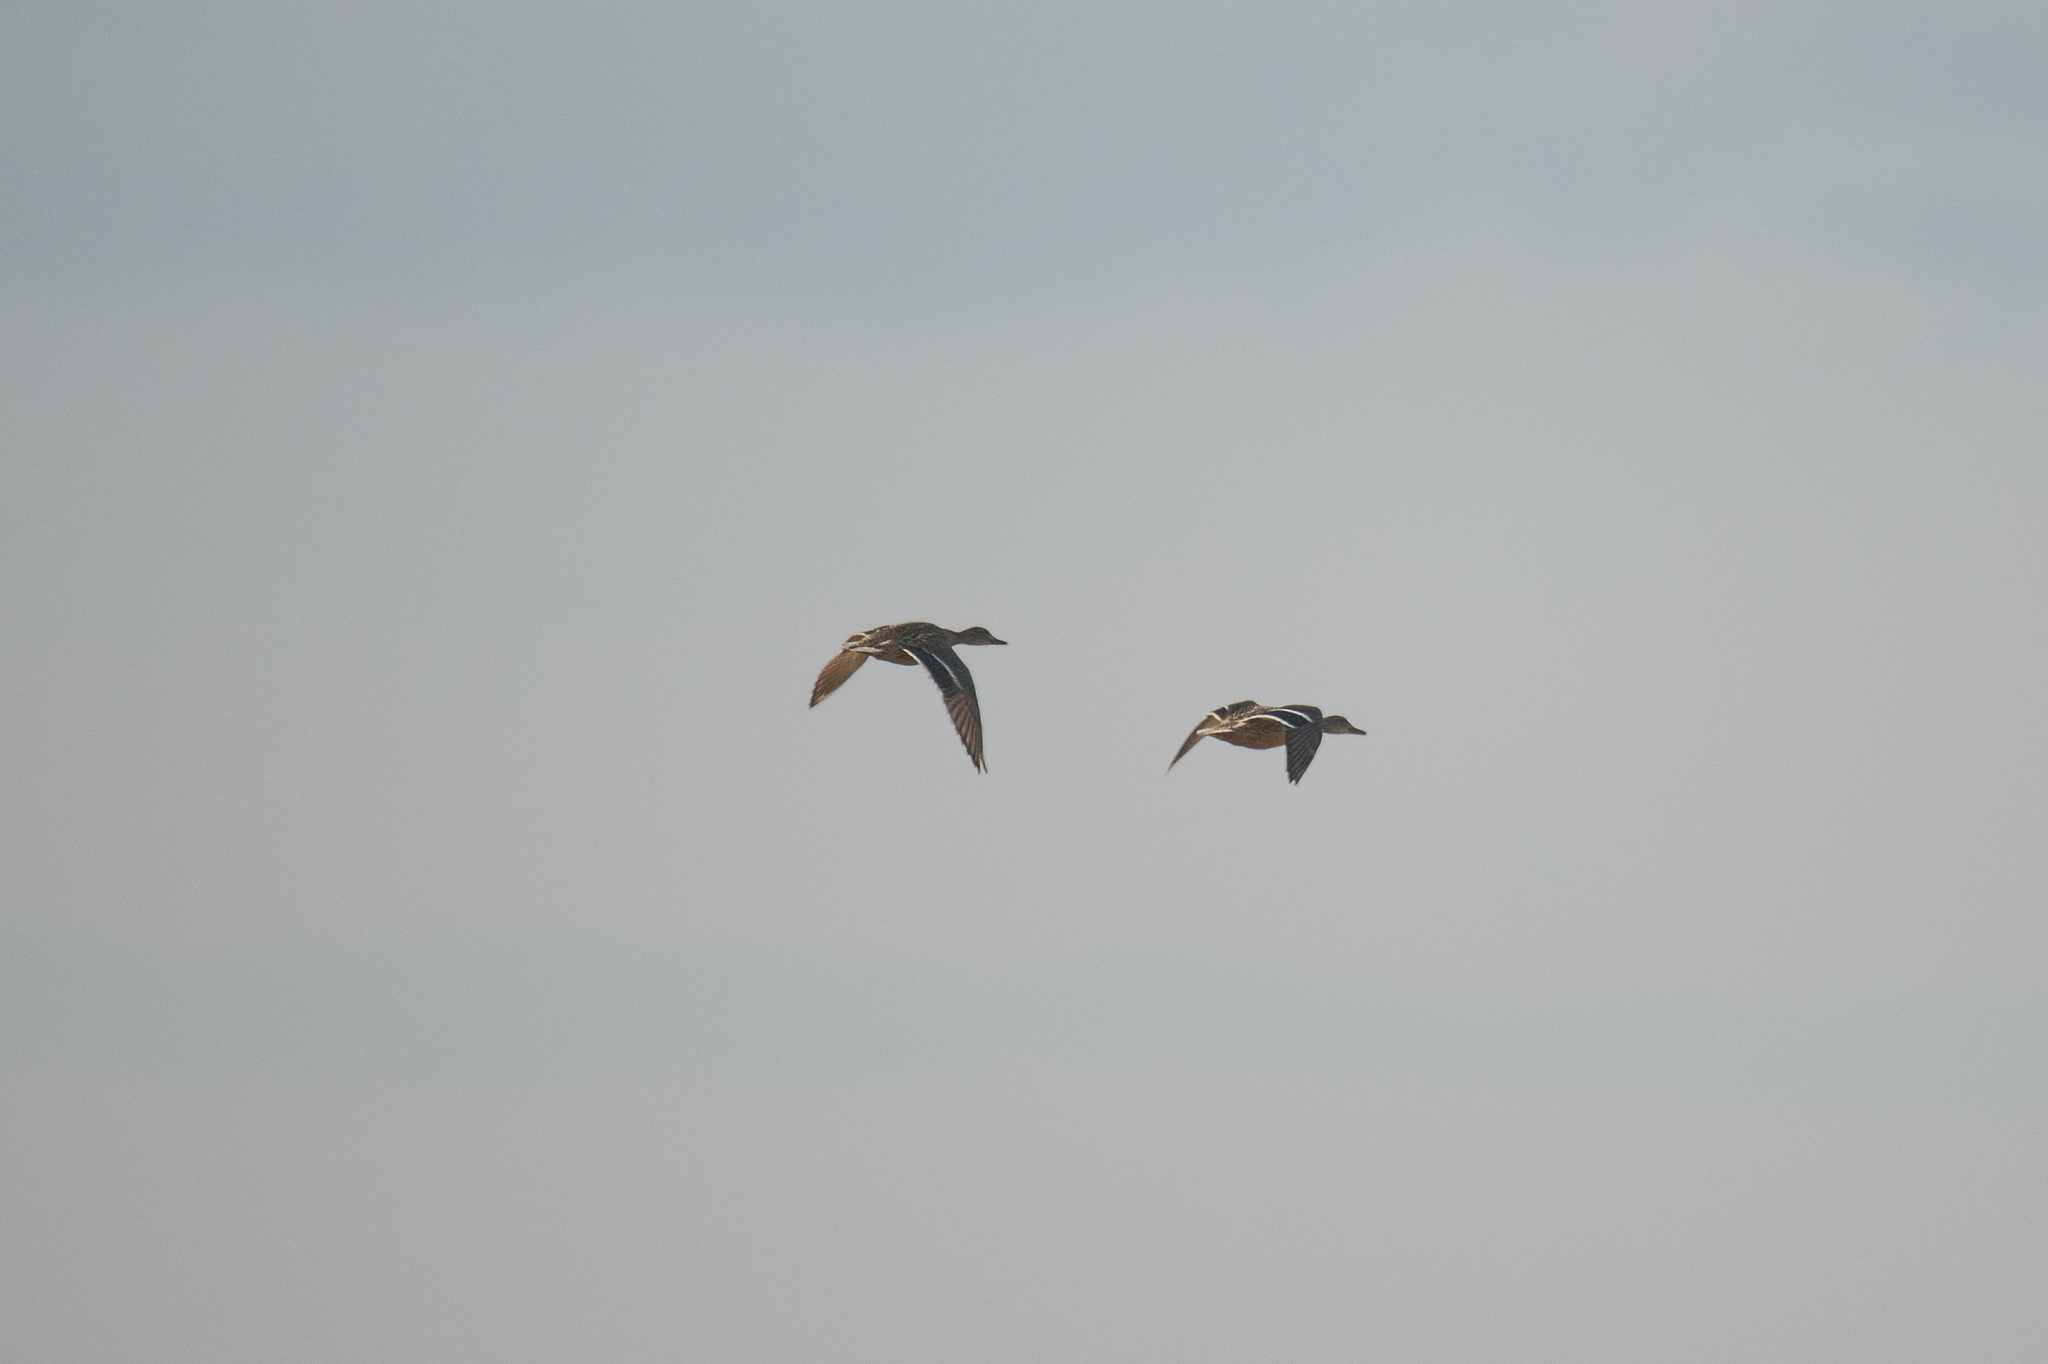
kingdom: Animalia
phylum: Chordata
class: Aves
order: Anseriformes
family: Anatidae
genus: Anas
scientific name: Anas platyrhynchos
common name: Mallard
